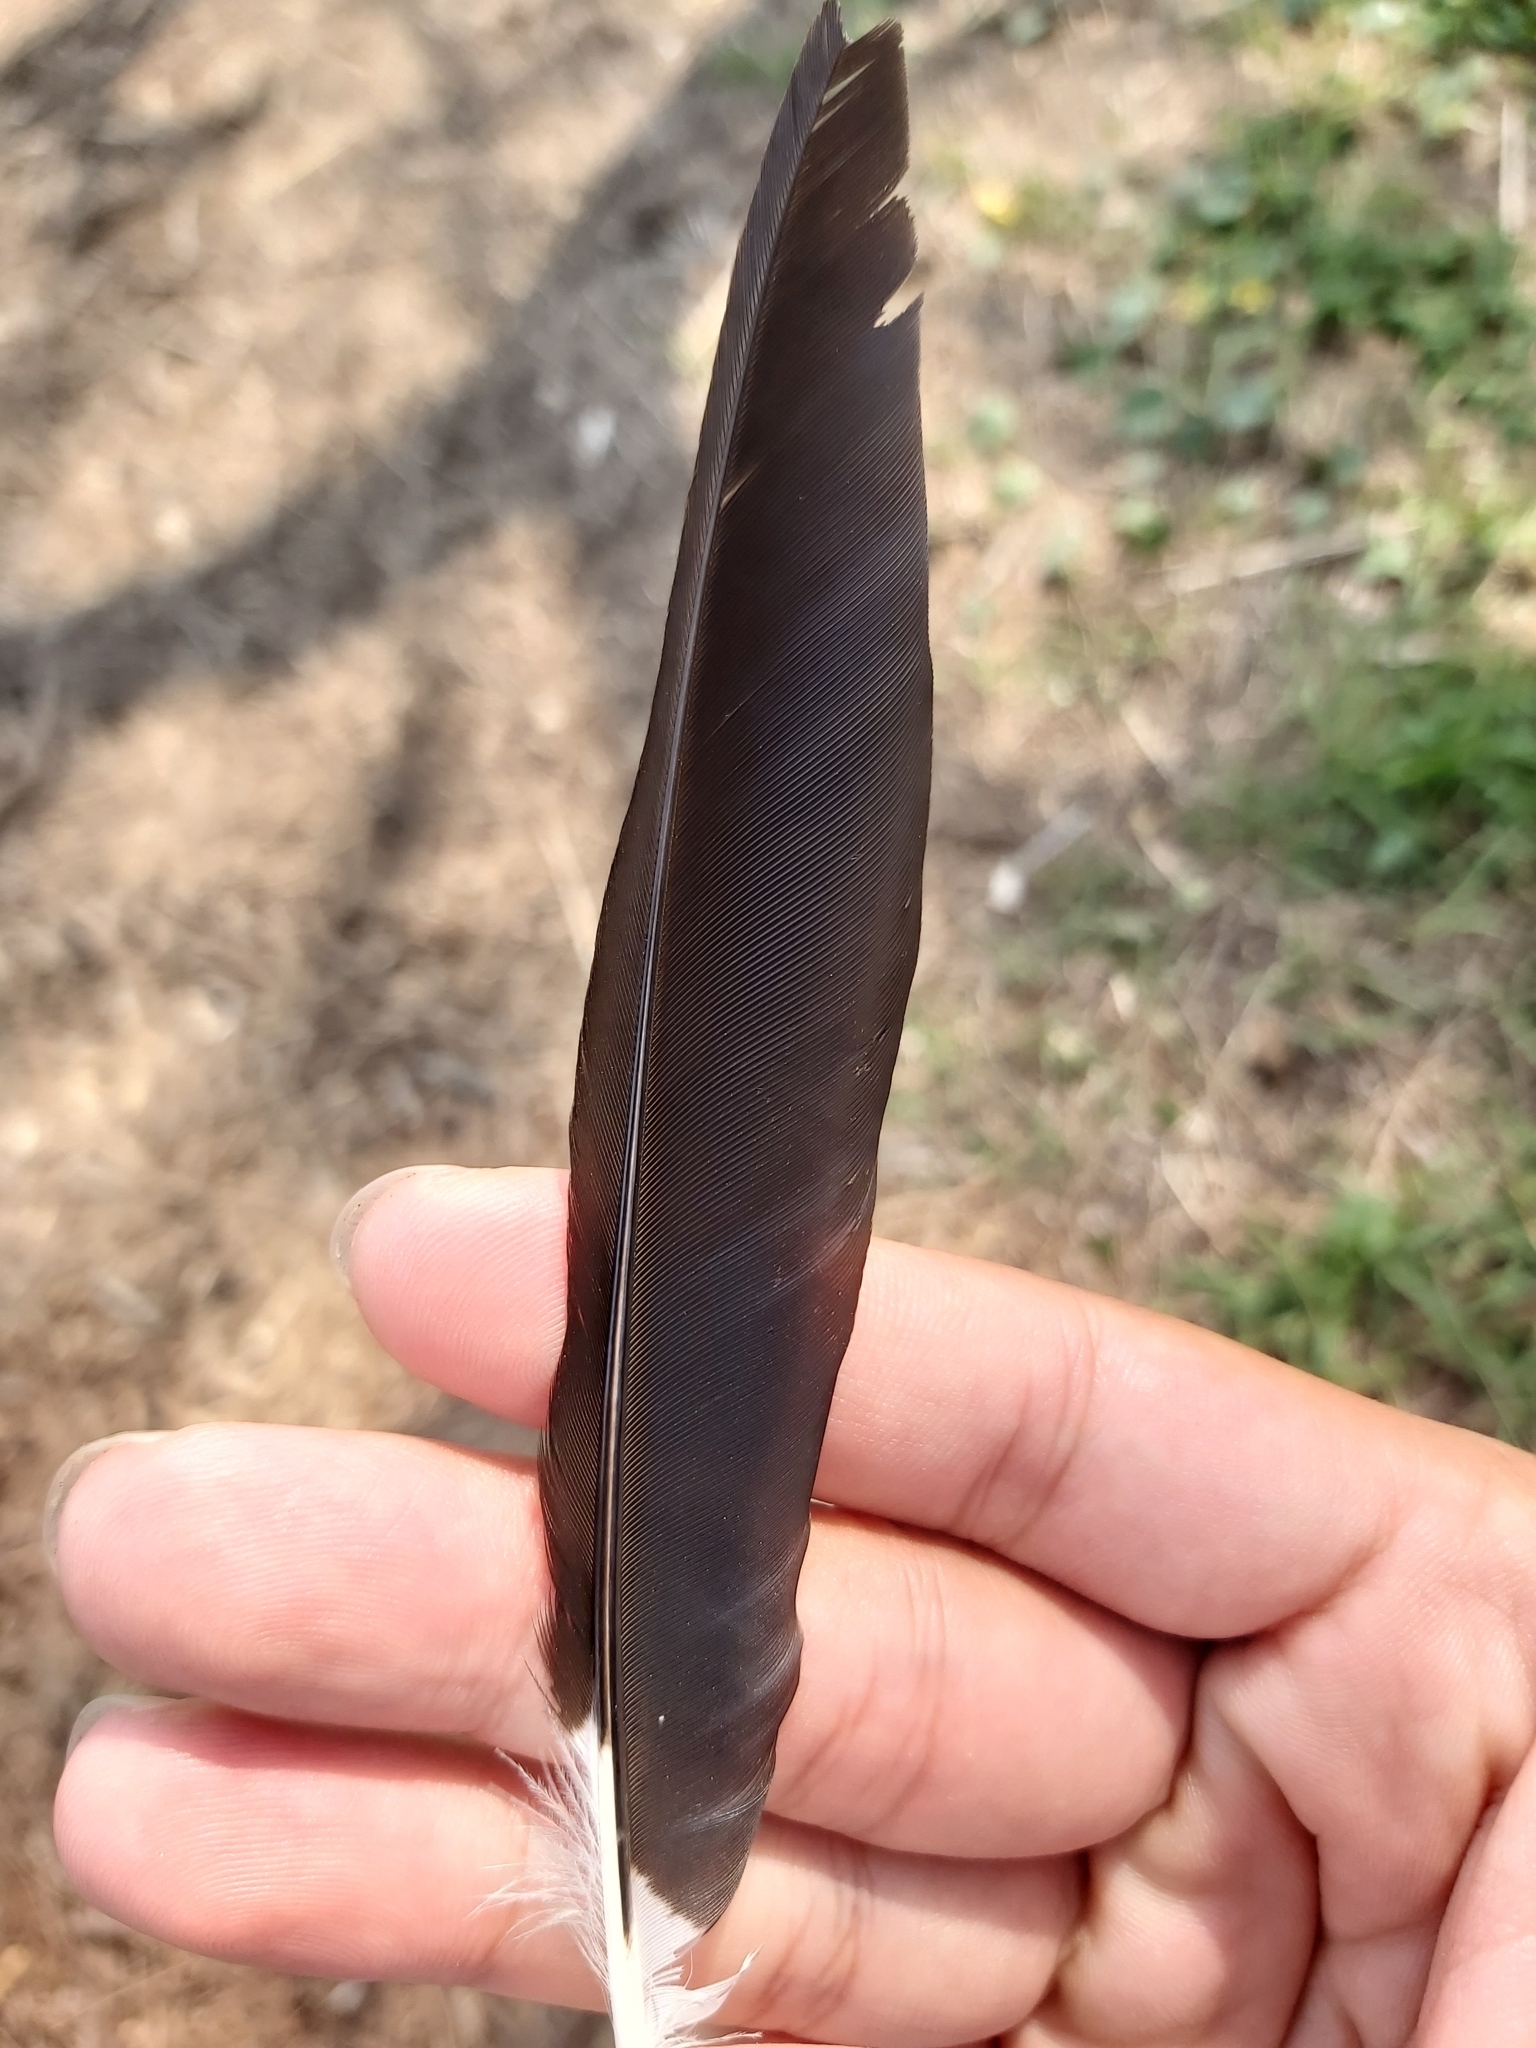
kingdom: Animalia
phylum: Chordata
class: Aves
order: Passeriformes
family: Monarchidae
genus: Grallina
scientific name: Grallina cyanoleuca
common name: Magpie-lark
